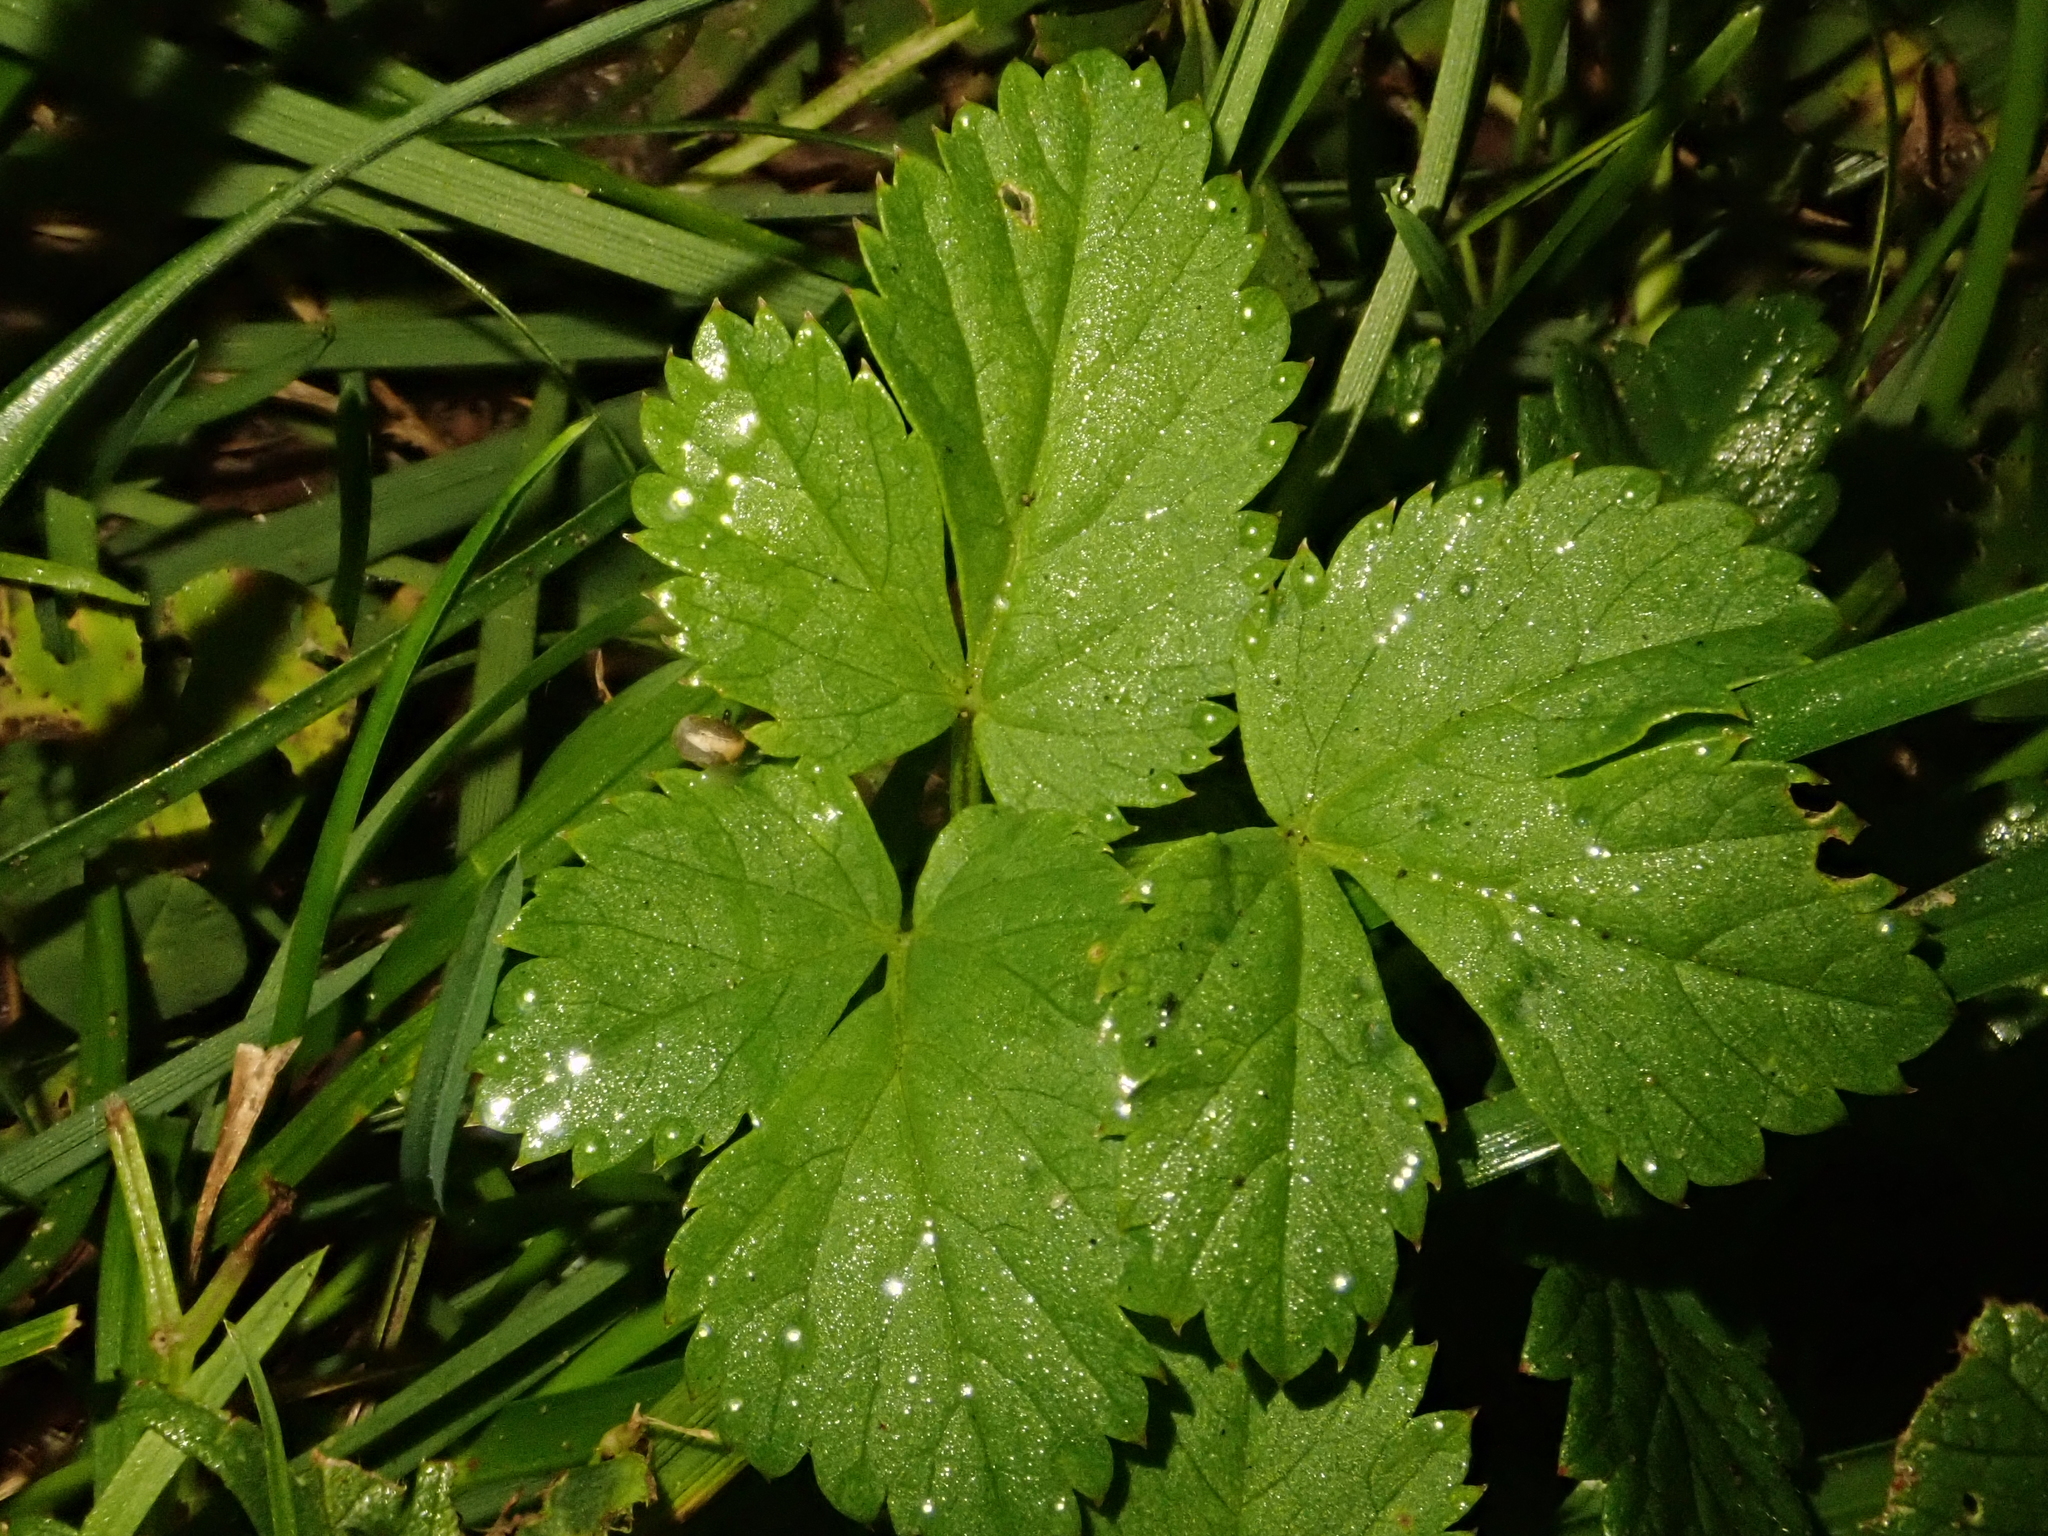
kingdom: Plantae
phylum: Tracheophyta
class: Magnoliopsida
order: Apiales
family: Apiaceae
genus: Aegopodium
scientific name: Aegopodium podagraria
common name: Ground-elder
